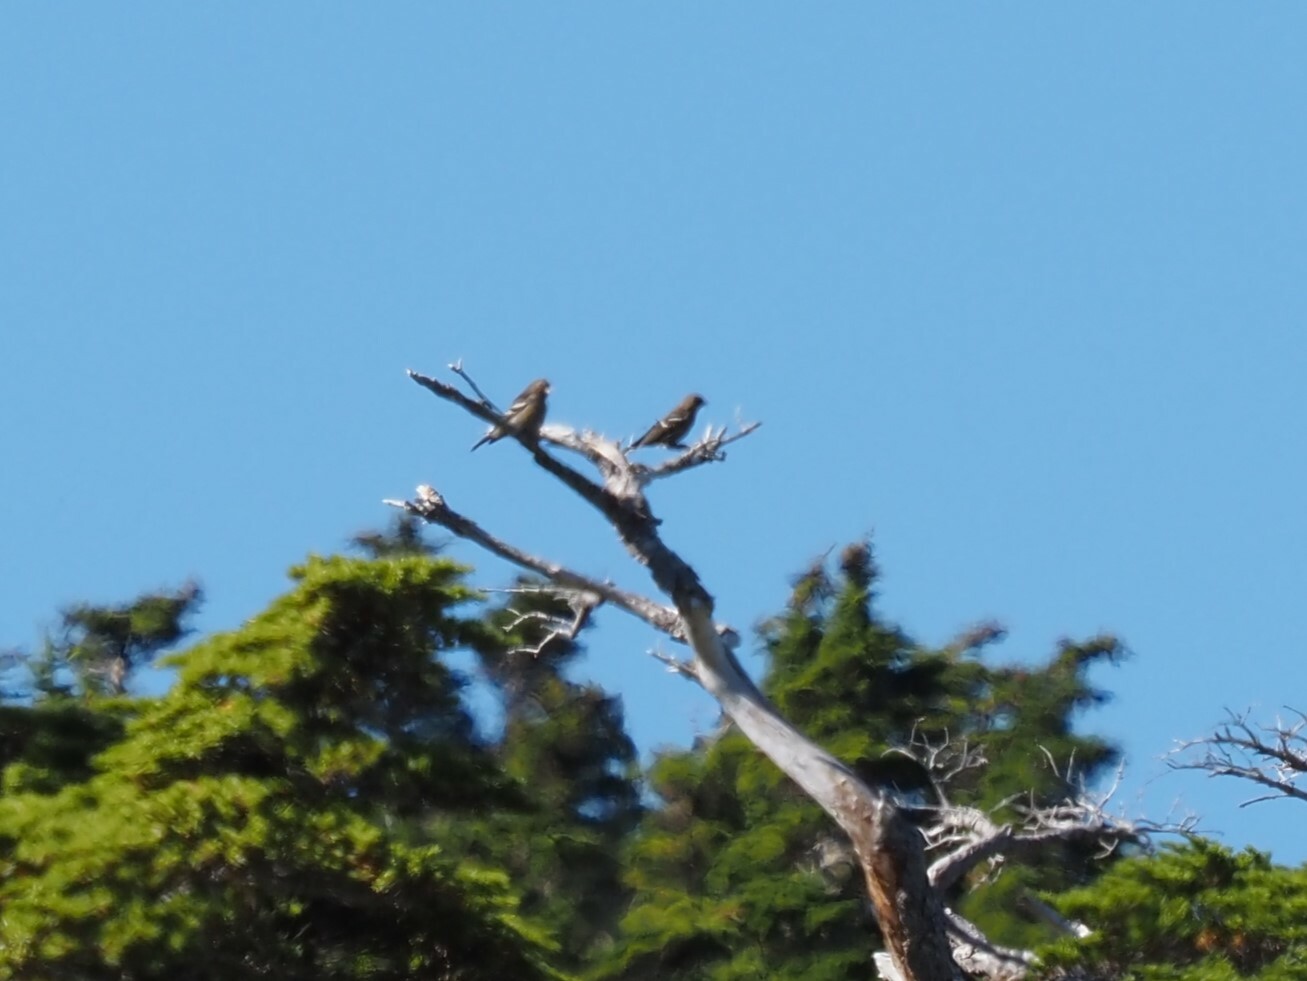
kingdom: Animalia
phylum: Chordata
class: Aves
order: Passeriformes
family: Fringillidae
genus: Loxia
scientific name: Loxia leucoptera
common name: Two-barred crossbill
